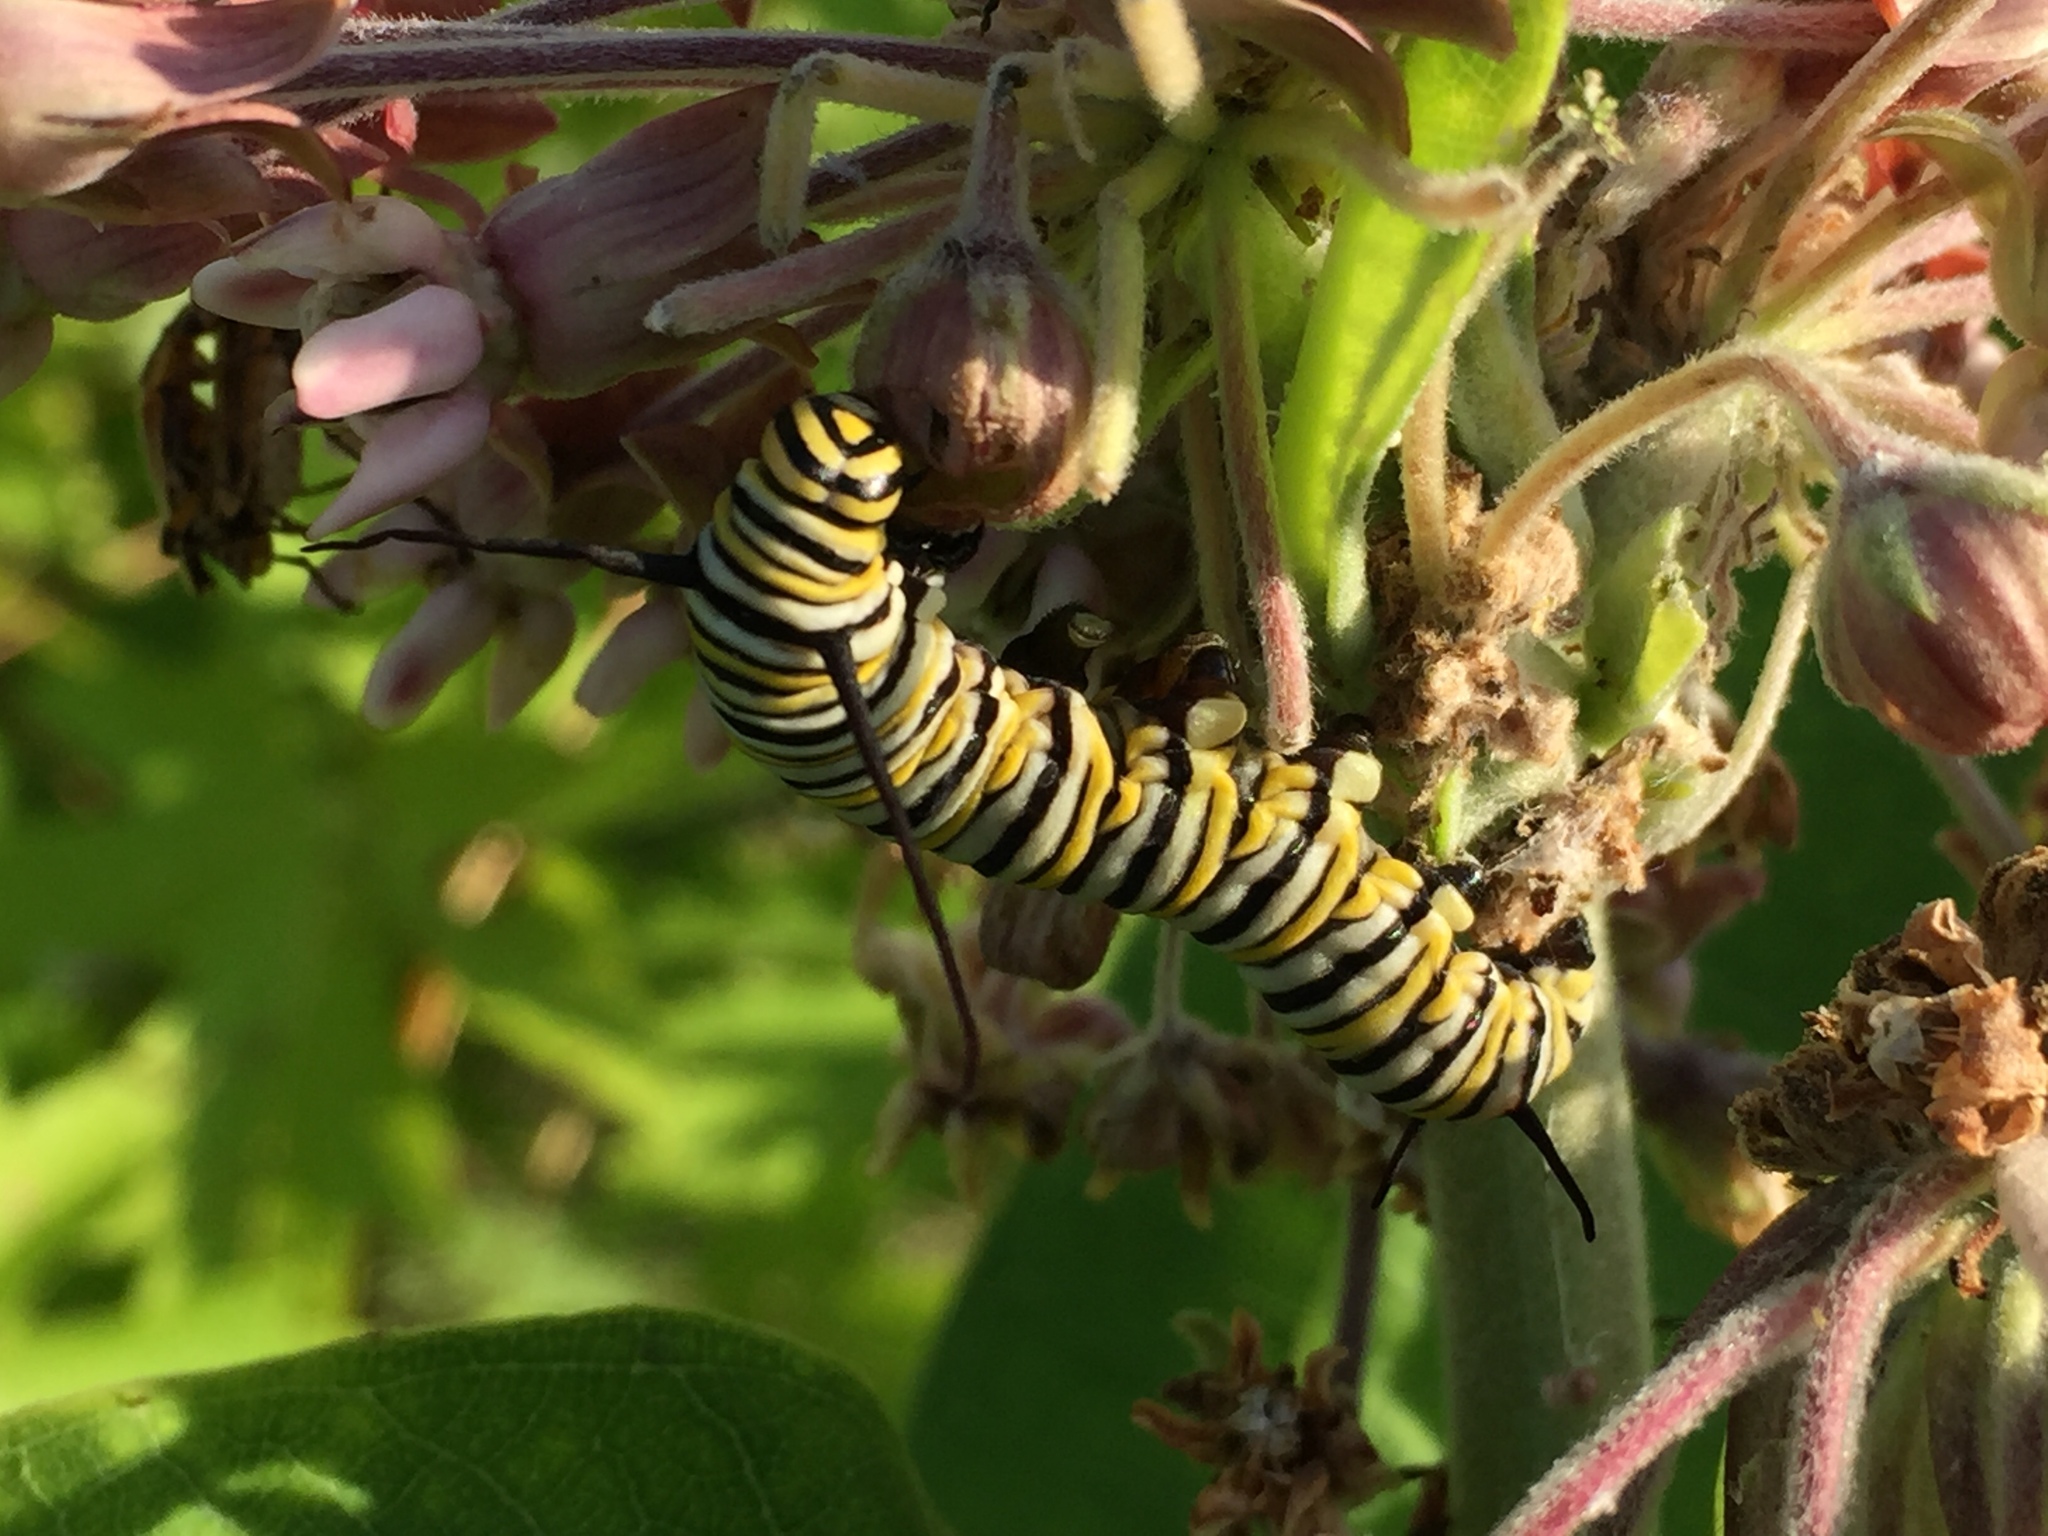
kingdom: Animalia
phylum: Arthropoda
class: Insecta
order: Lepidoptera
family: Nymphalidae
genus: Danaus
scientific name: Danaus plexippus
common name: Monarch
